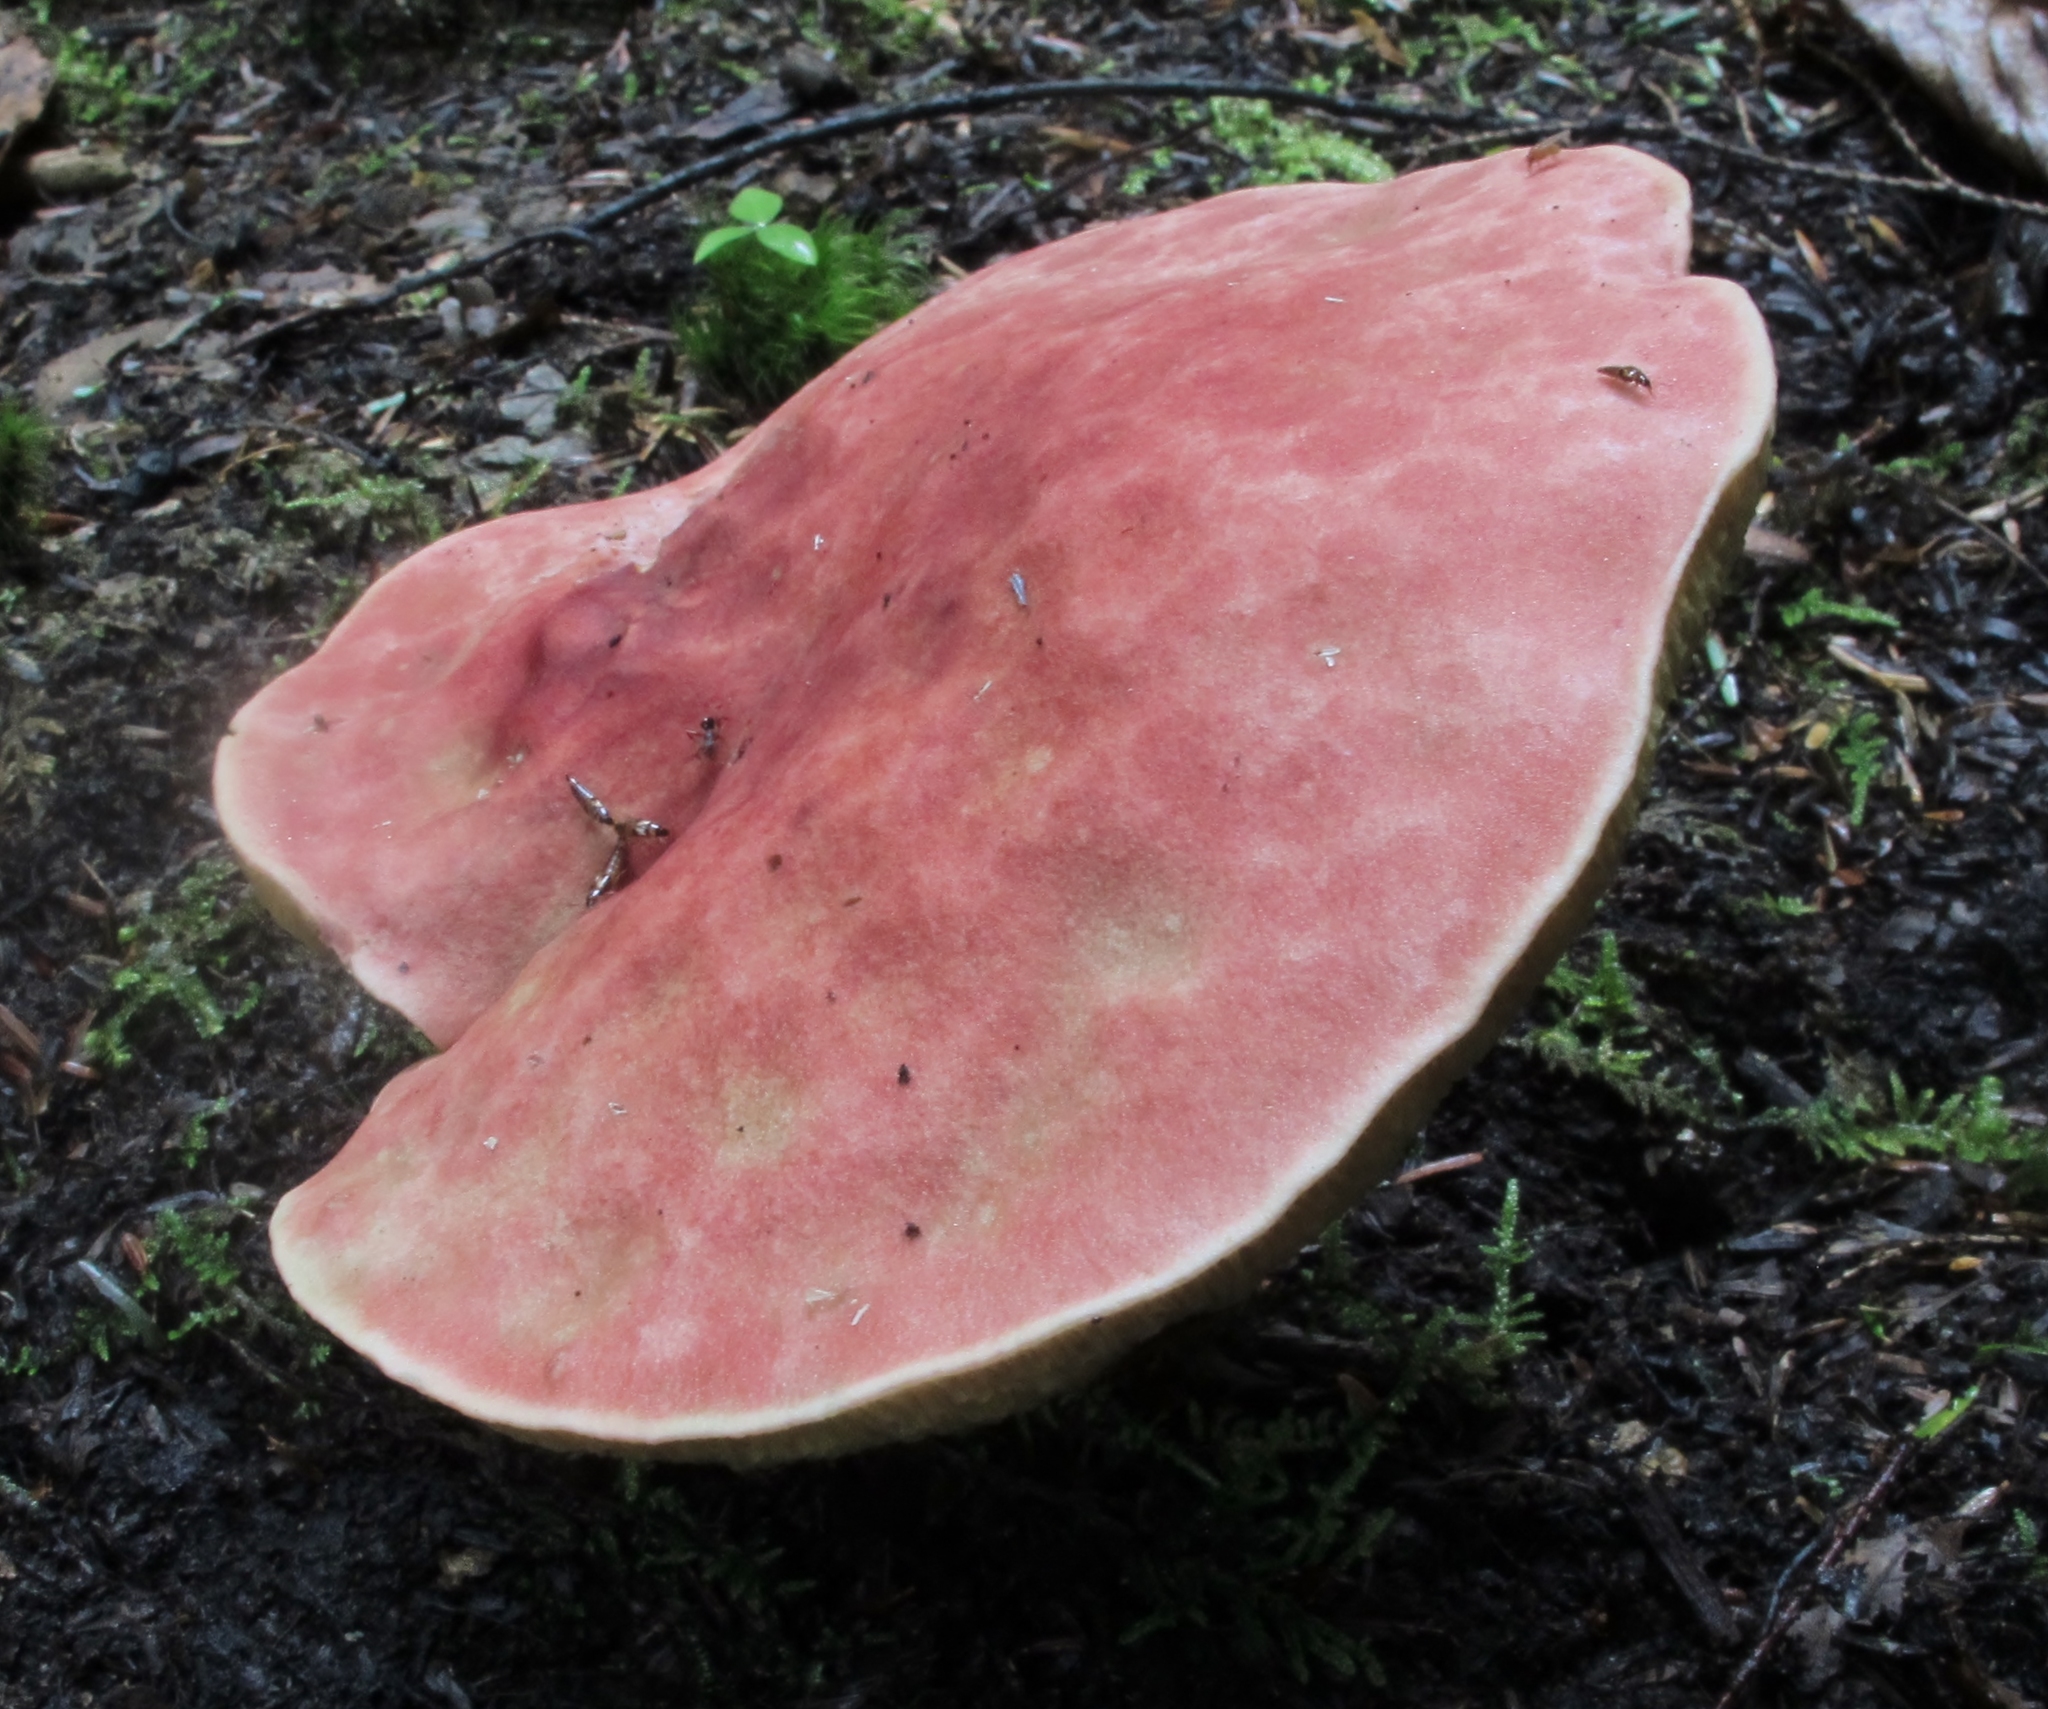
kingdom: Fungi
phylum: Basidiomycota
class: Agaricomycetes
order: Boletales
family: Boletaceae
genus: Boletus
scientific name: Boletus miniatopallescens
